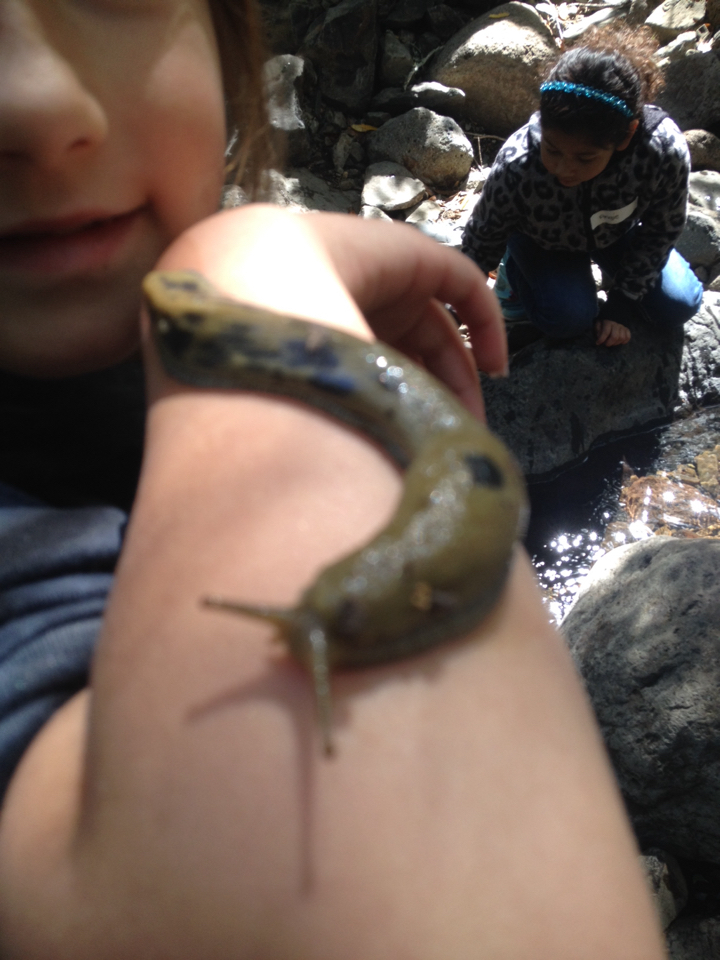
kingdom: Animalia
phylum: Mollusca
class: Gastropoda
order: Stylommatophora
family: Ariolimacidae
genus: Ariolimax
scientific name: Ariolimax buttoni
